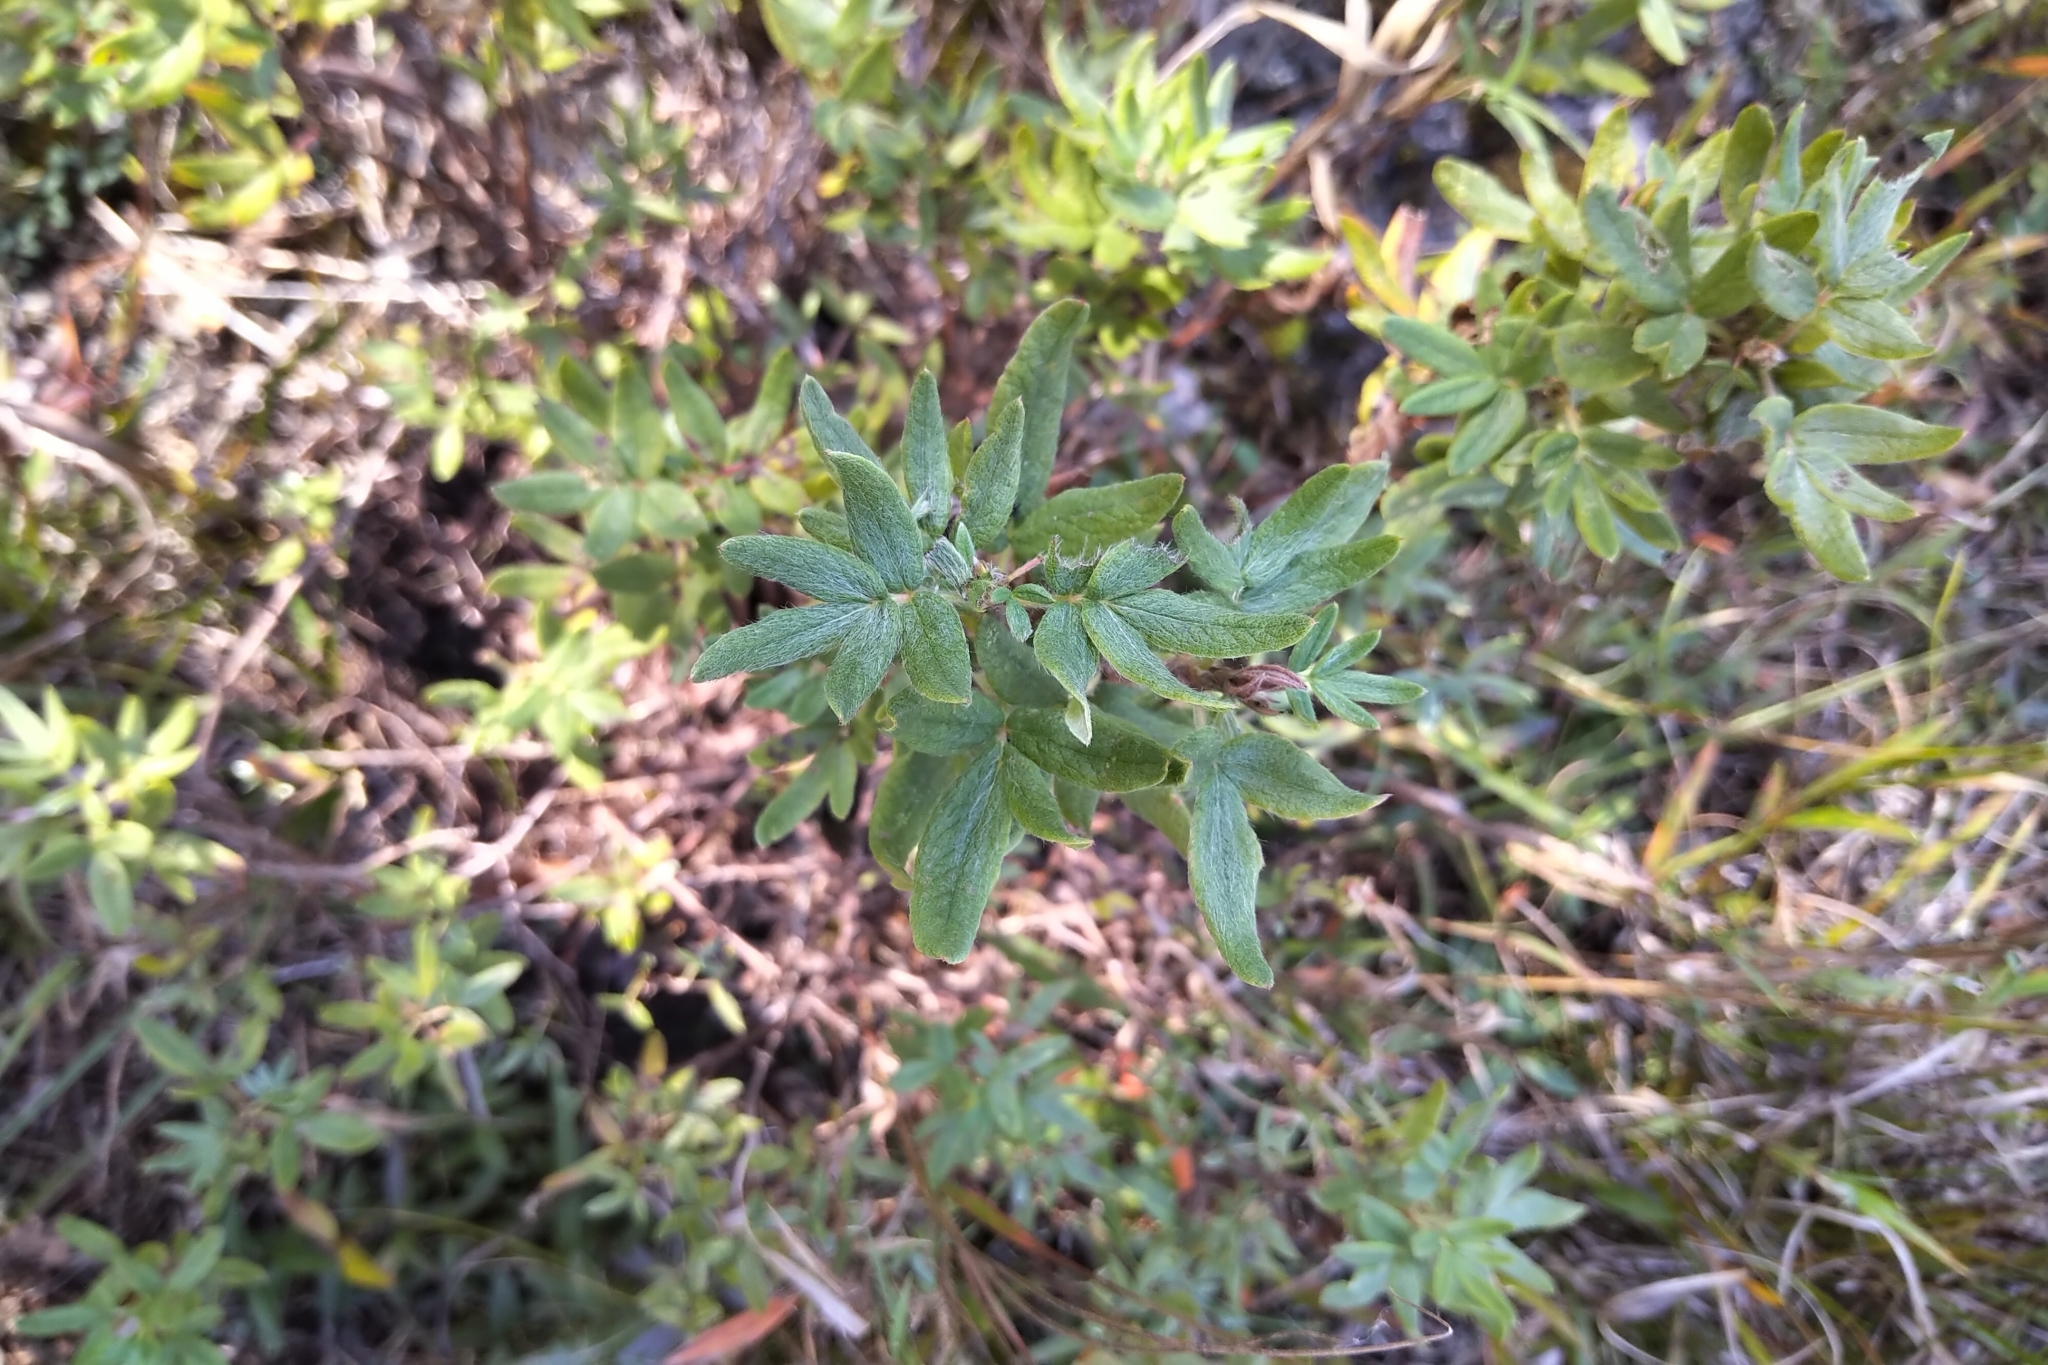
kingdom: Plantae
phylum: Tracheophyta
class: Magnoliopsida
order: Rosales
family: Rosaceae
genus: Dasiphora
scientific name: Dasiphora fruticosa
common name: Shrubby cinquefoil
